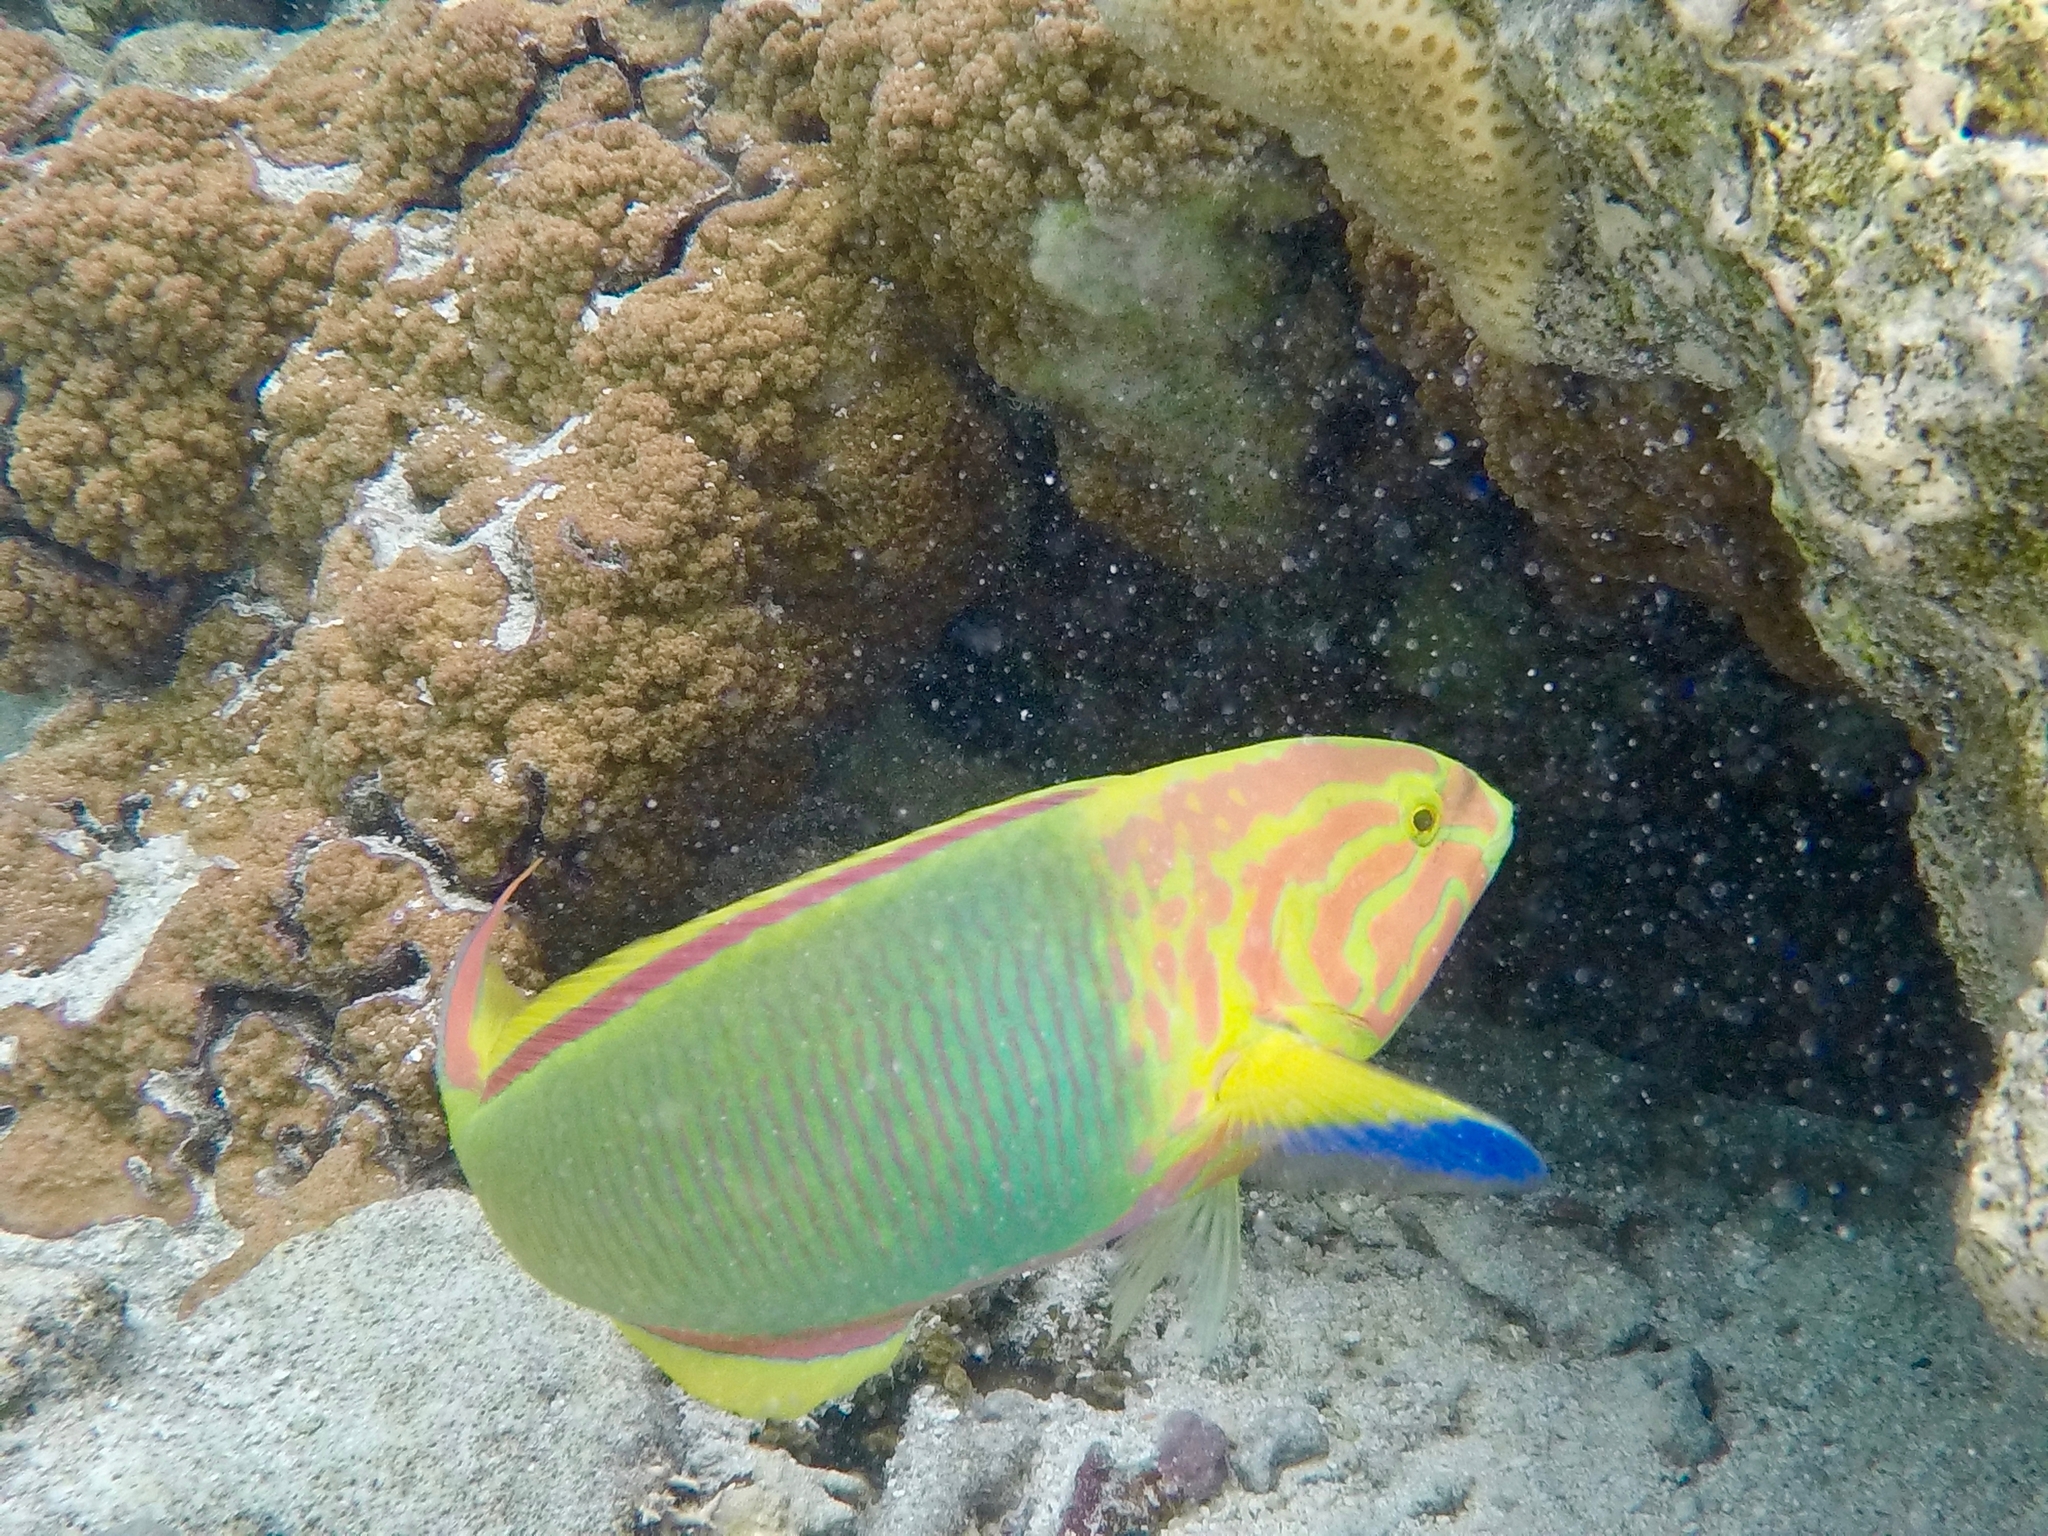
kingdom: Animalia
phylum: Chordata
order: Perciformes
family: Labridae
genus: Thalassoma
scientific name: Thalassoma lutescens
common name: Green moon wrasse
